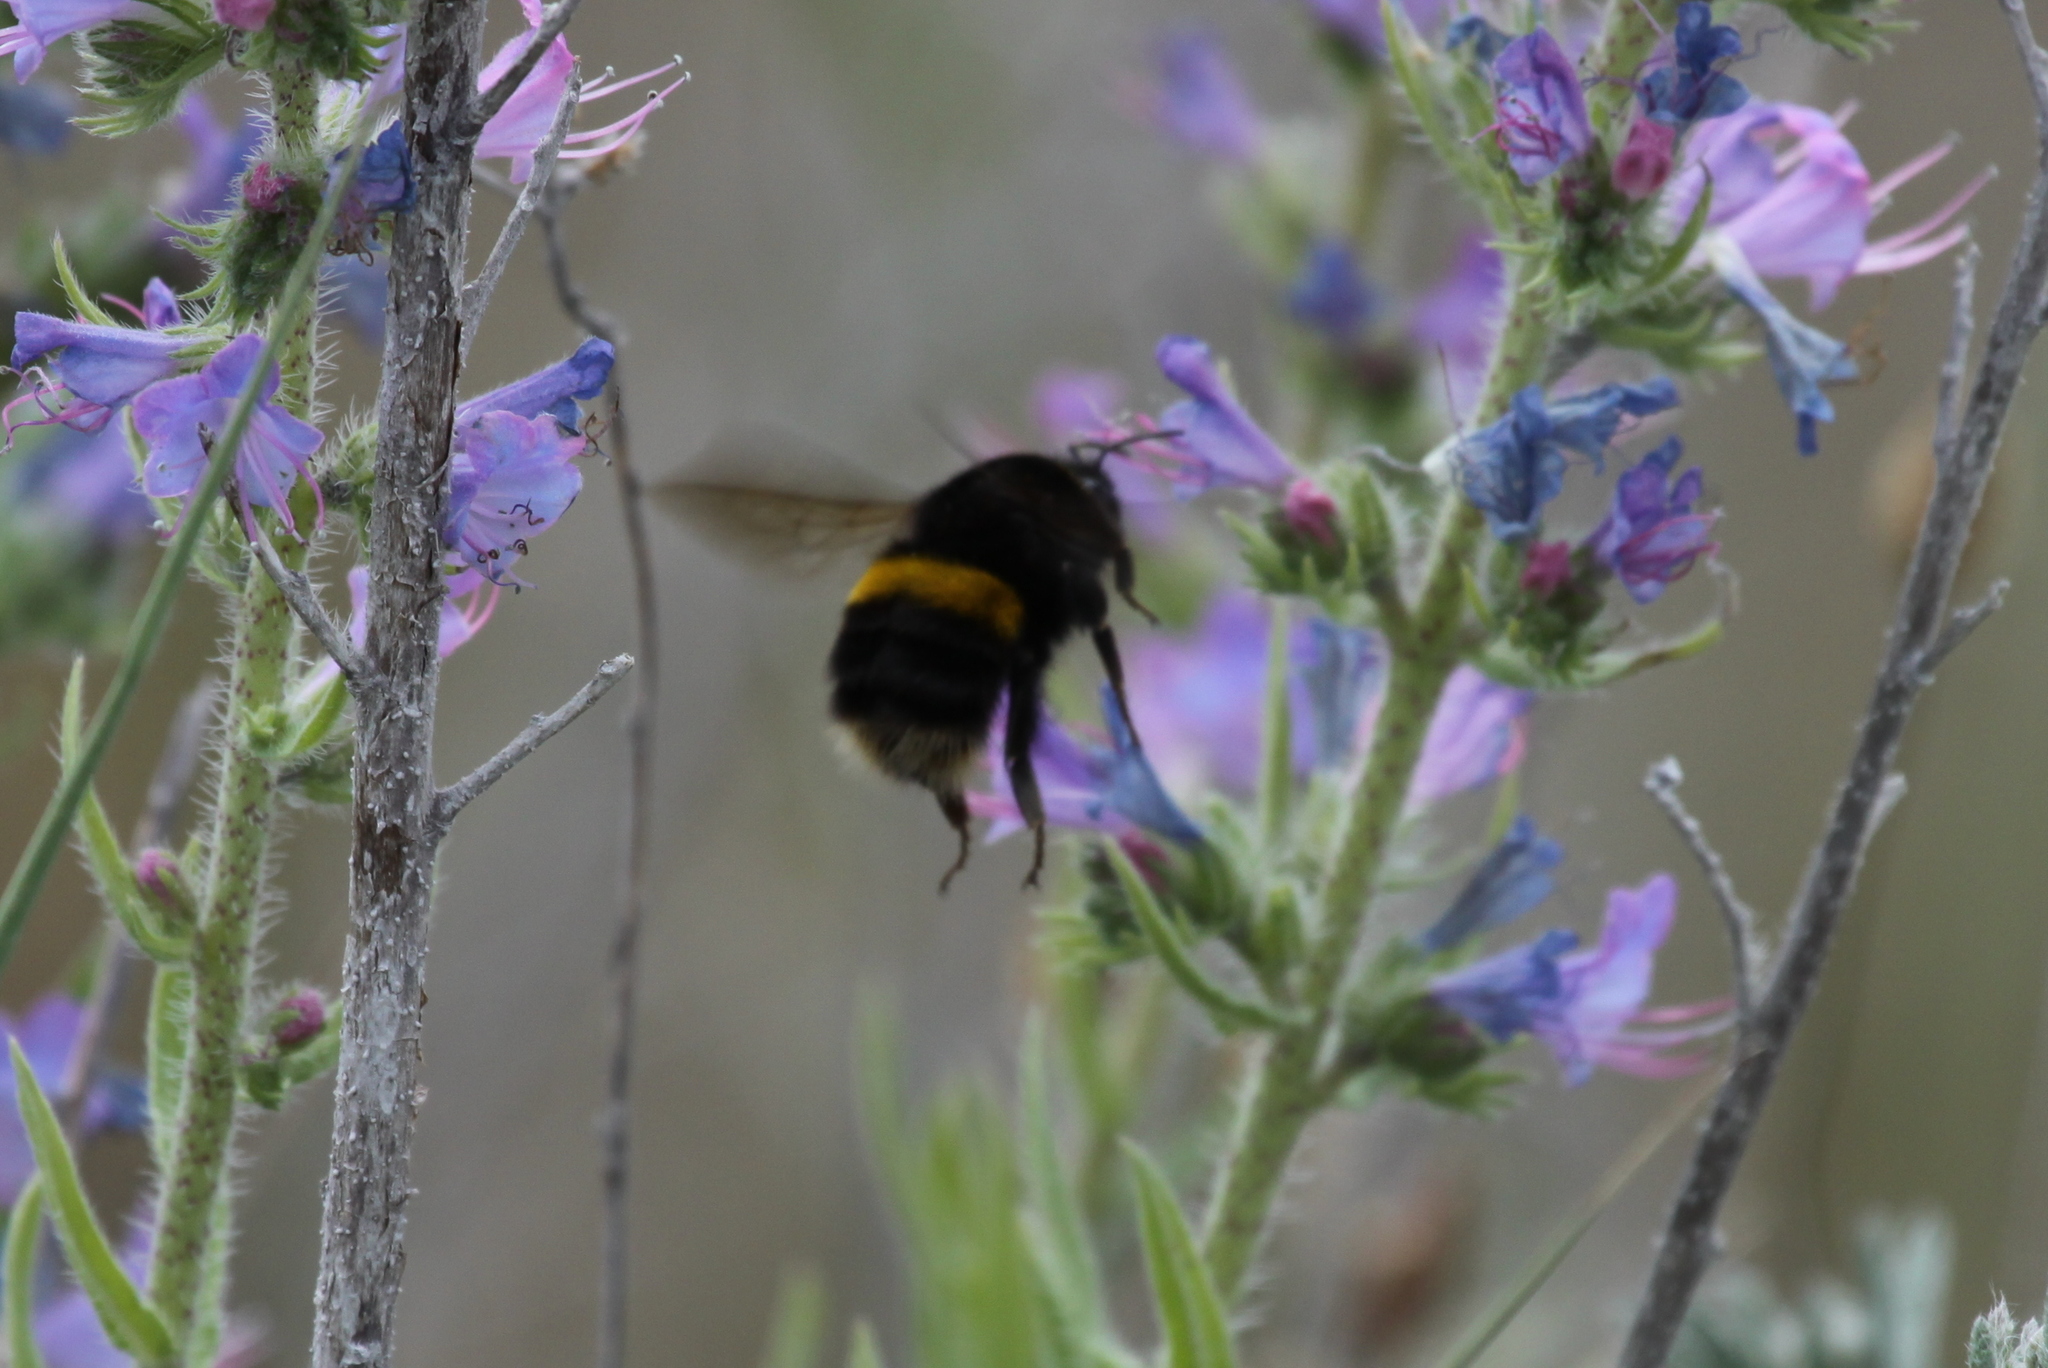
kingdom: Animalia
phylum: Arthropoda
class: Insecta
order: Hymenoptera
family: Apidae
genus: Bombus
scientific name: Bombus terrestris
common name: Buff-tailed bumblebee
